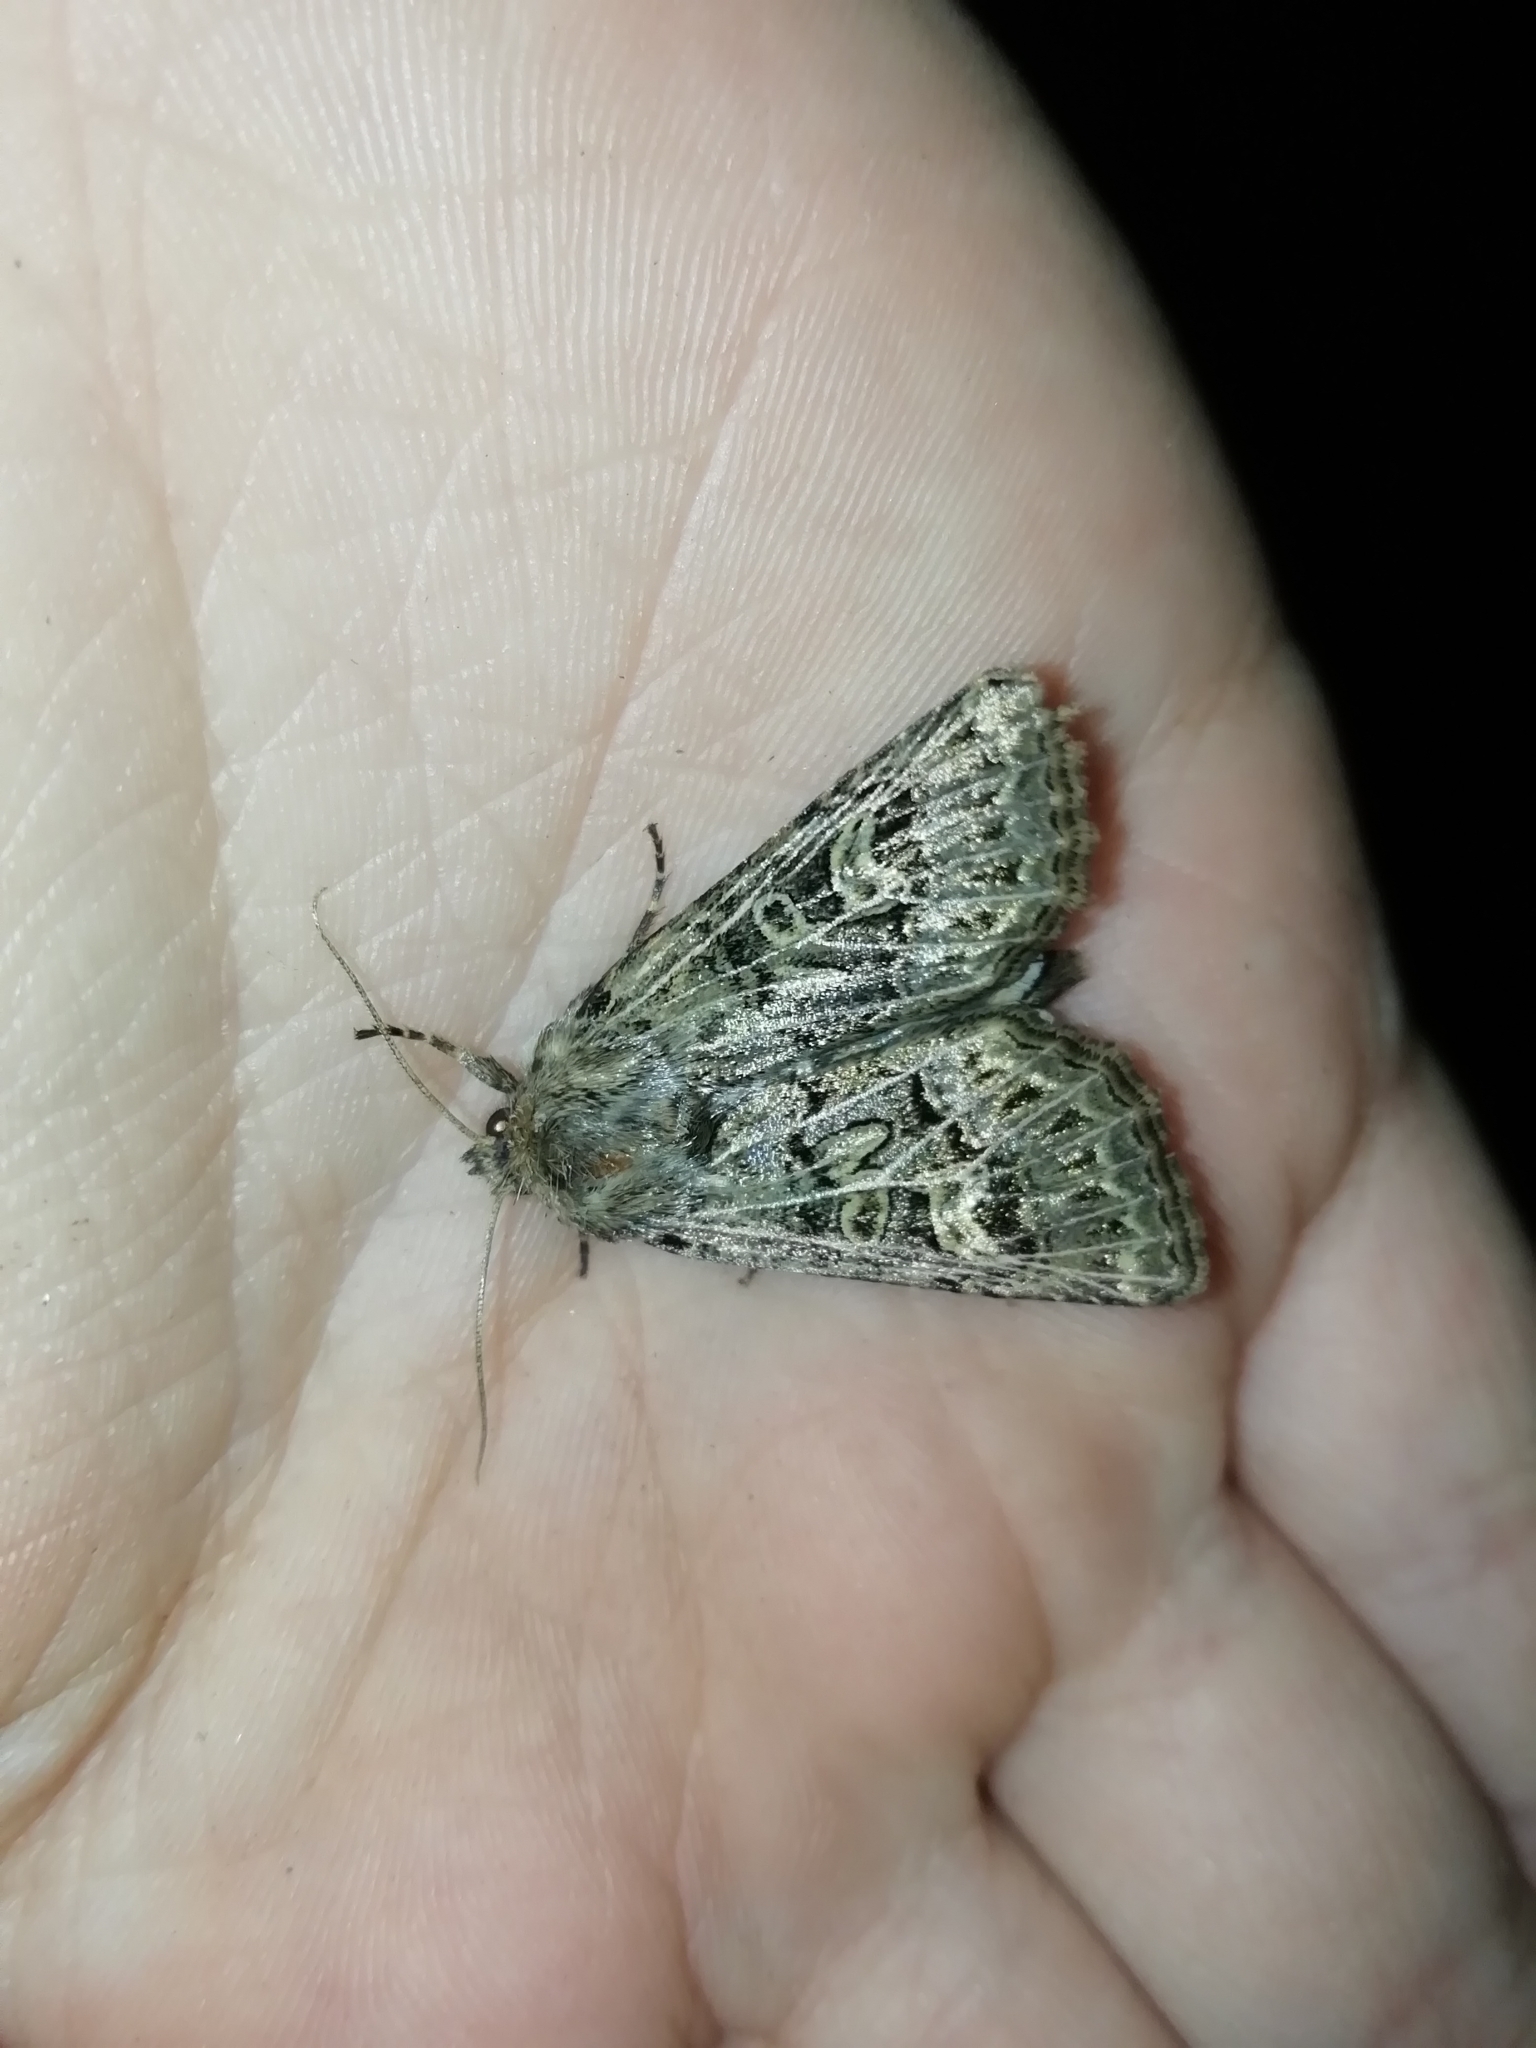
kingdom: Animalia
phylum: Arthropoda
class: Insecta
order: Lepidoptera
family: Noctuidae
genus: Tholera
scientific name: Tholera decimalis
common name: Feathered gothic
